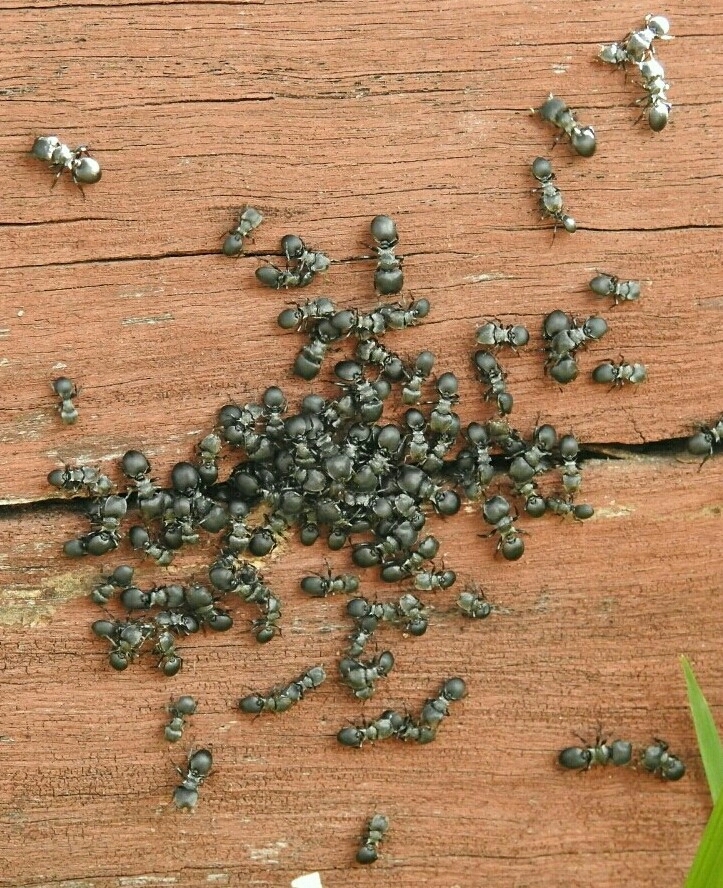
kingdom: Animalia
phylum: Arthropoda
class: Insecta
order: Hymenoptera
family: Formicidae
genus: Cephalotes
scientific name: Cephalotes
